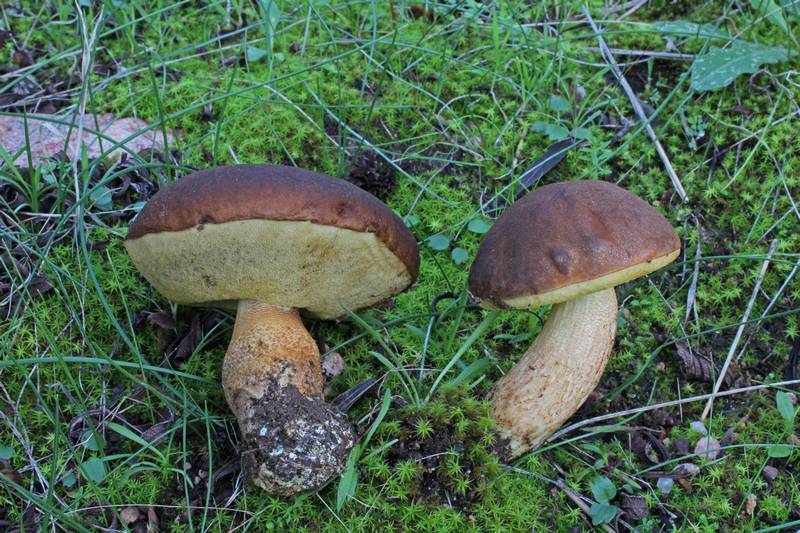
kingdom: Fungi
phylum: Basidiomycota
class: Agaricomycetes
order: Boletales
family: Boletaceae
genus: Leccinellum
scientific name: Leccinellum corsicum
